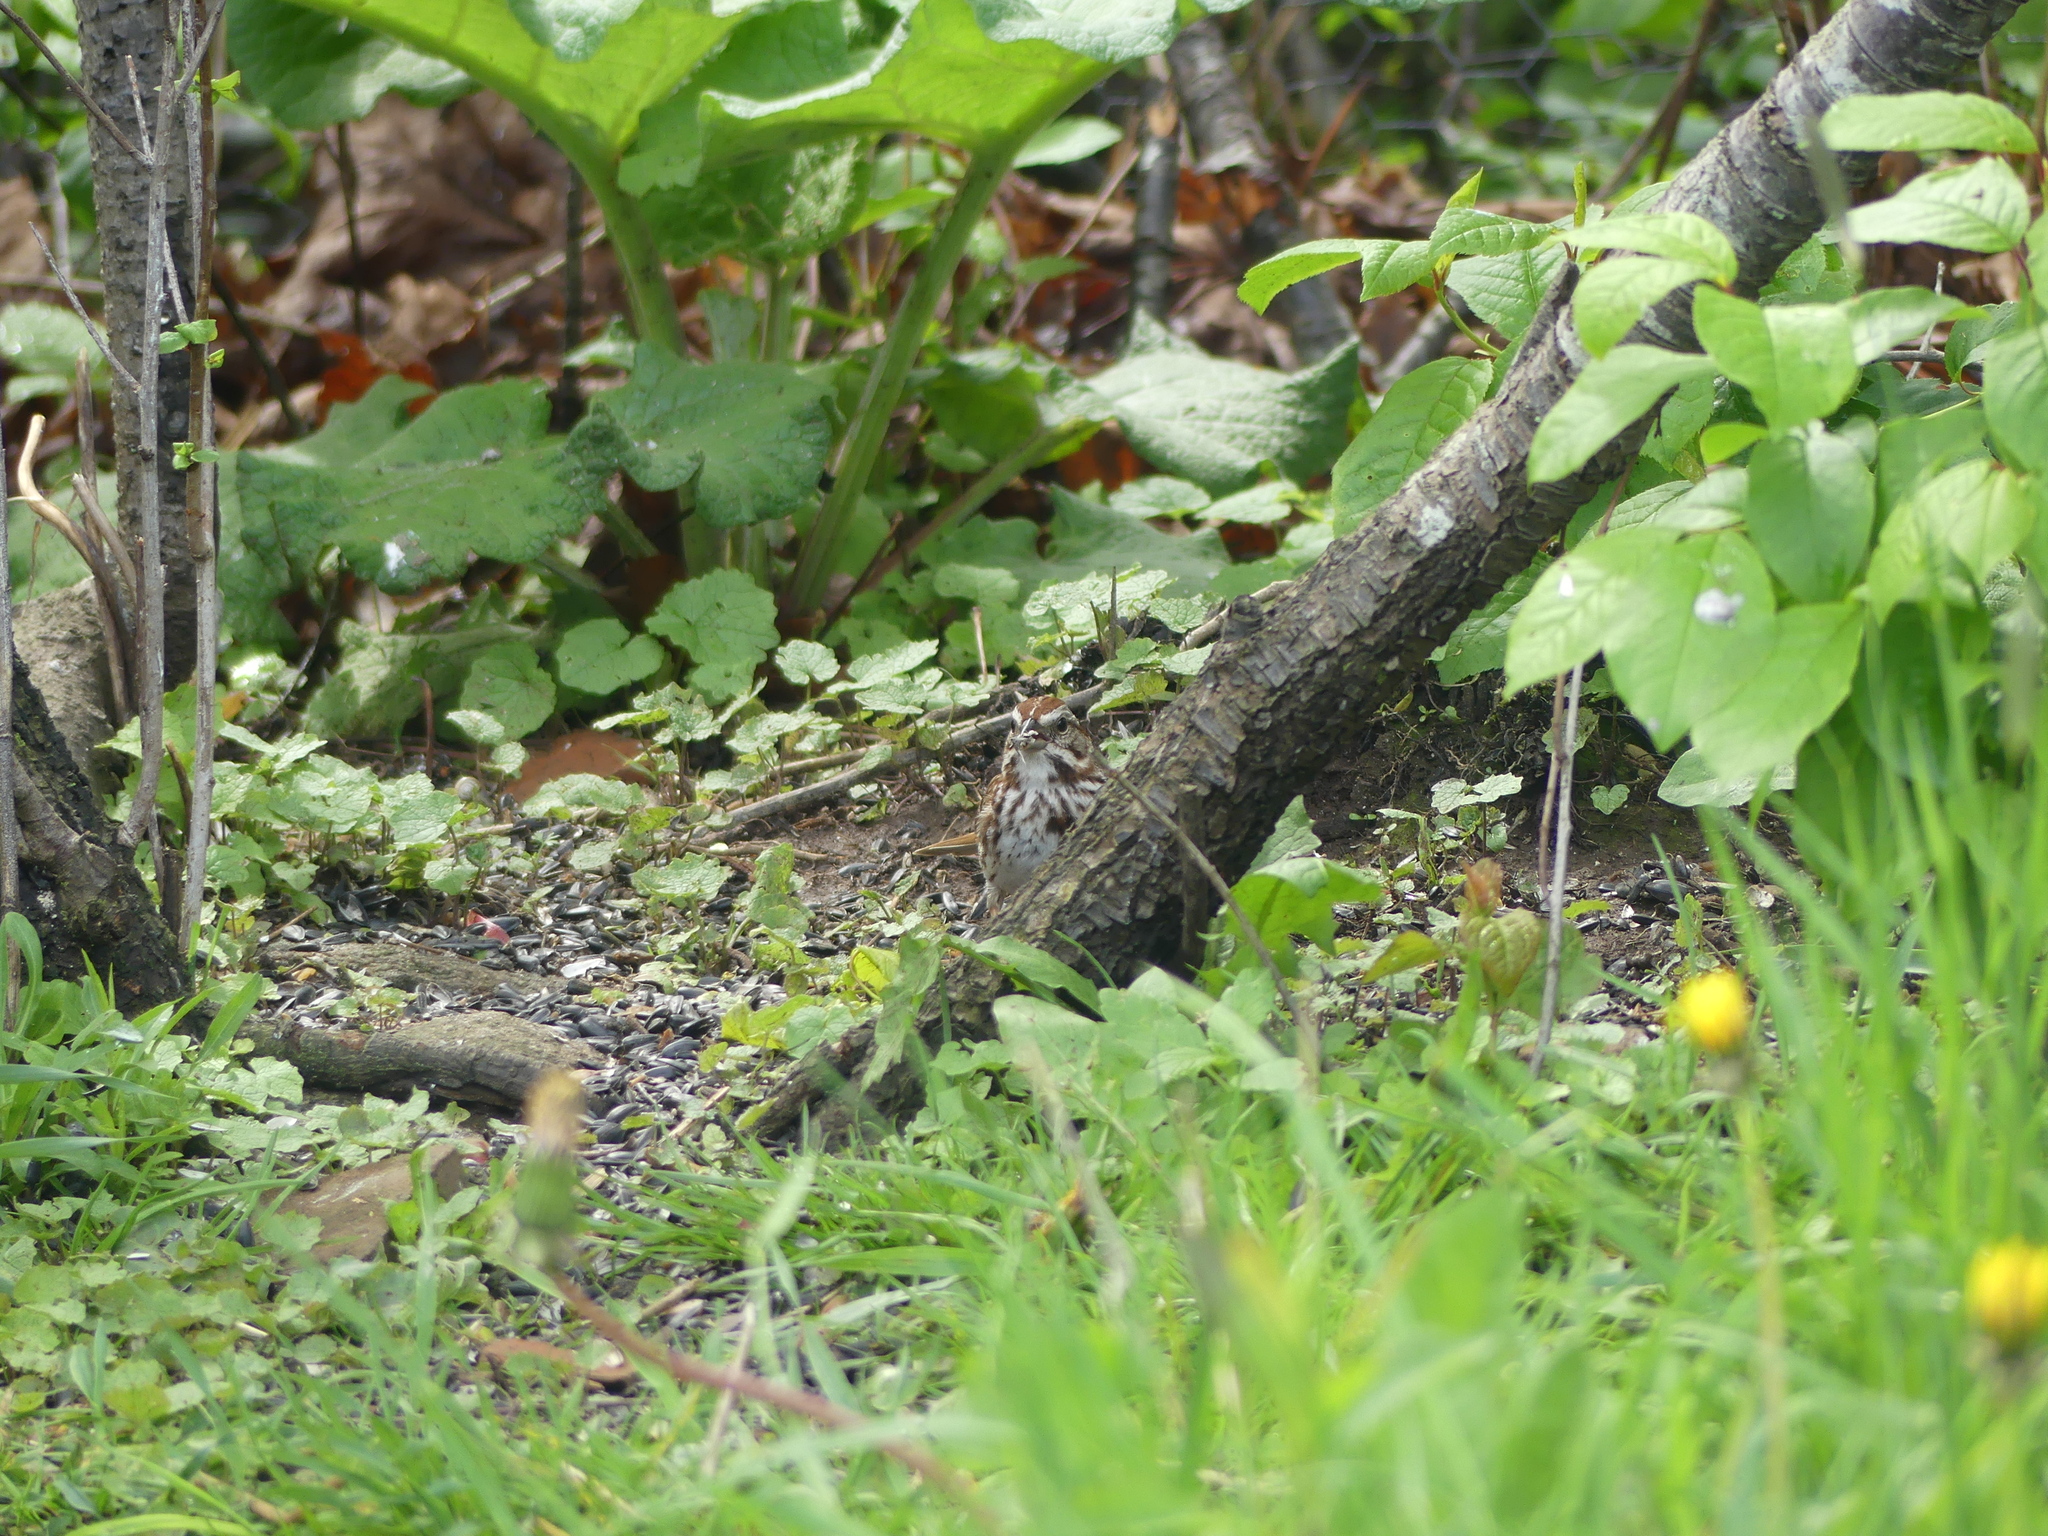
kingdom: Animalia
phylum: Chordata
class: Aves
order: Passeriformes
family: Passerellidae
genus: Melospiza
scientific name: Melospiza melodia
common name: Song sparrow
